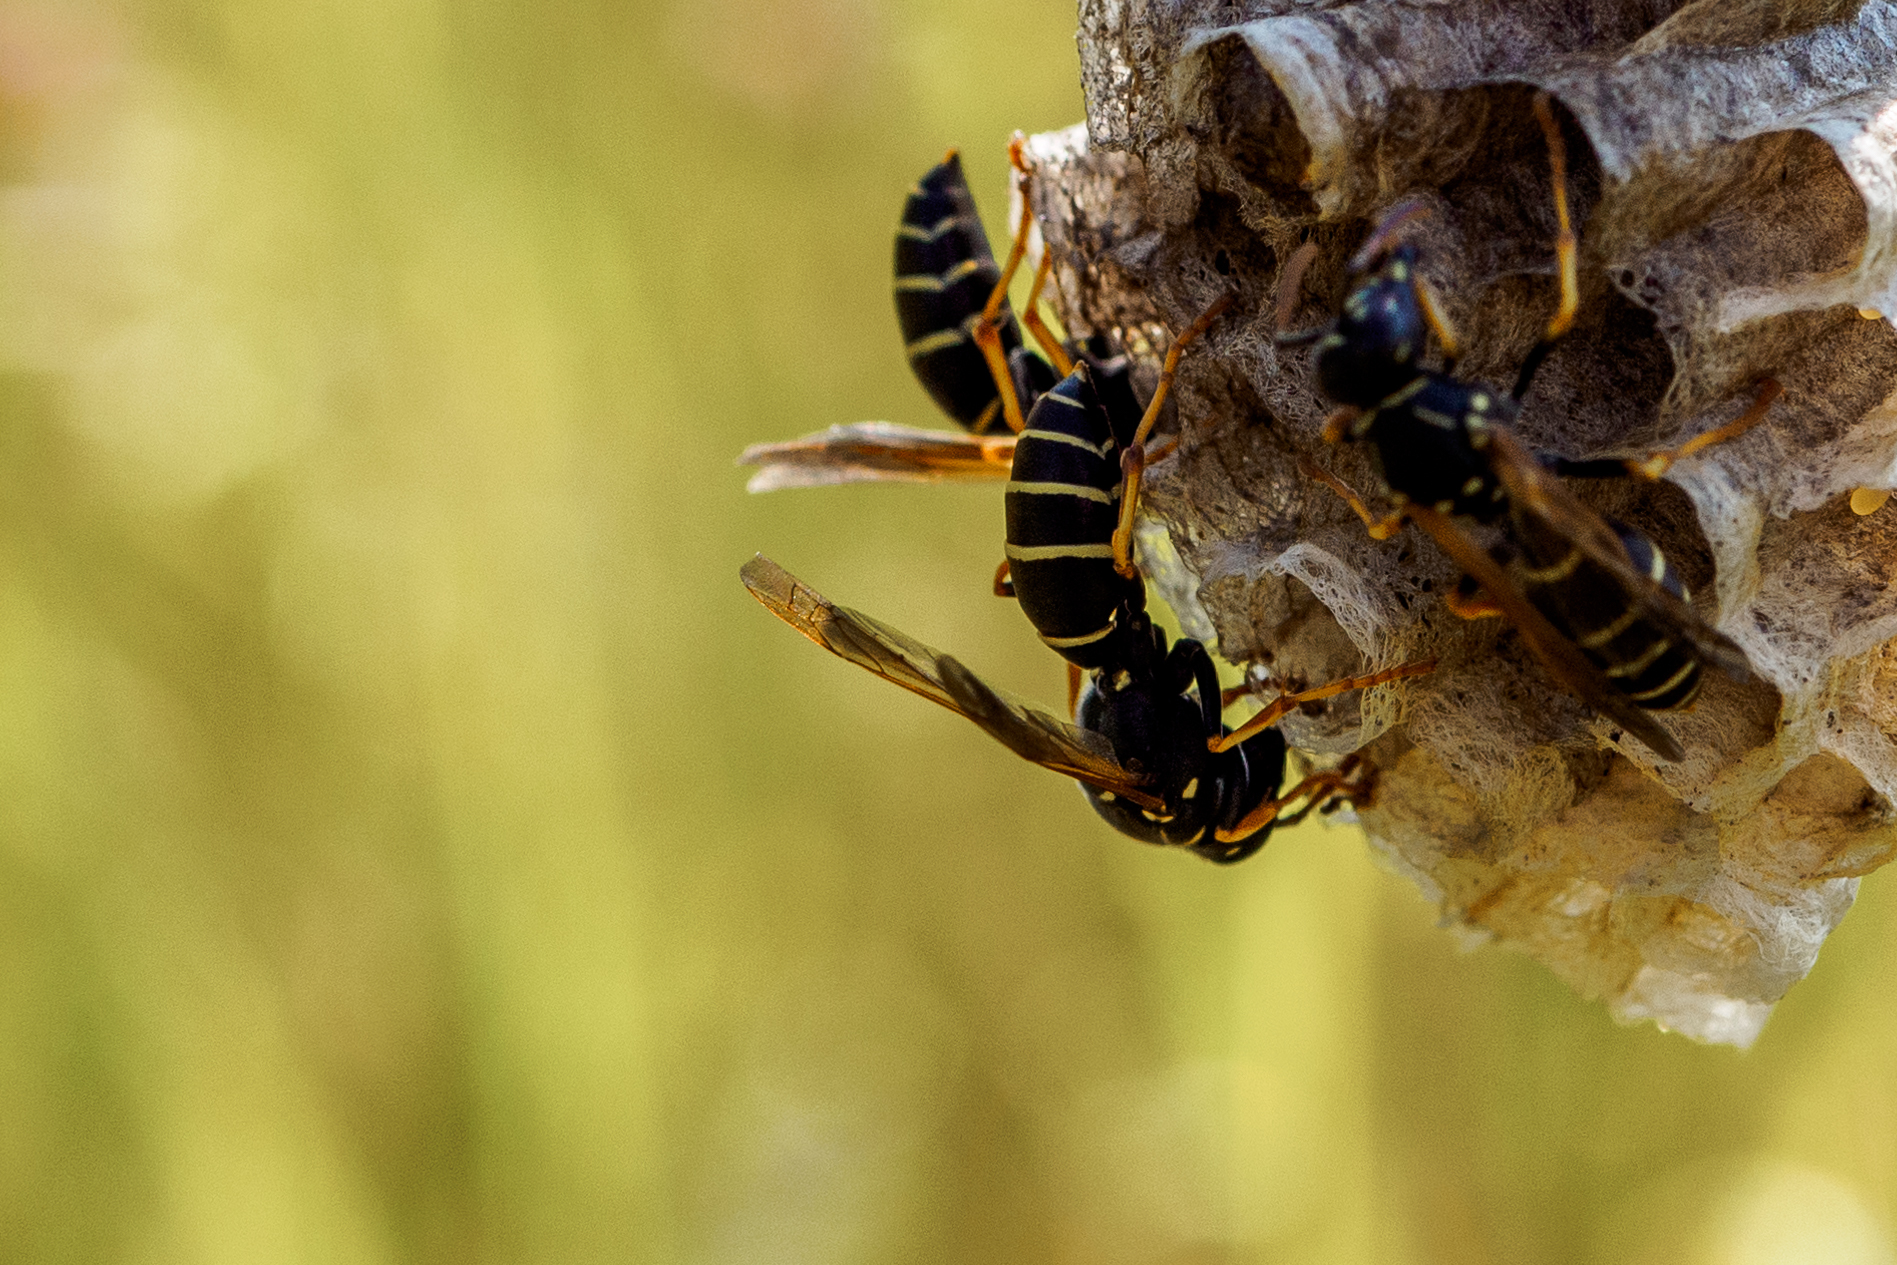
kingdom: Animalia
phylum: Arthropoda
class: Insecta
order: Hymenoptera
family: Eumenidae
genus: Polistes
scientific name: Polistes gallicus
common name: Paper wasp
